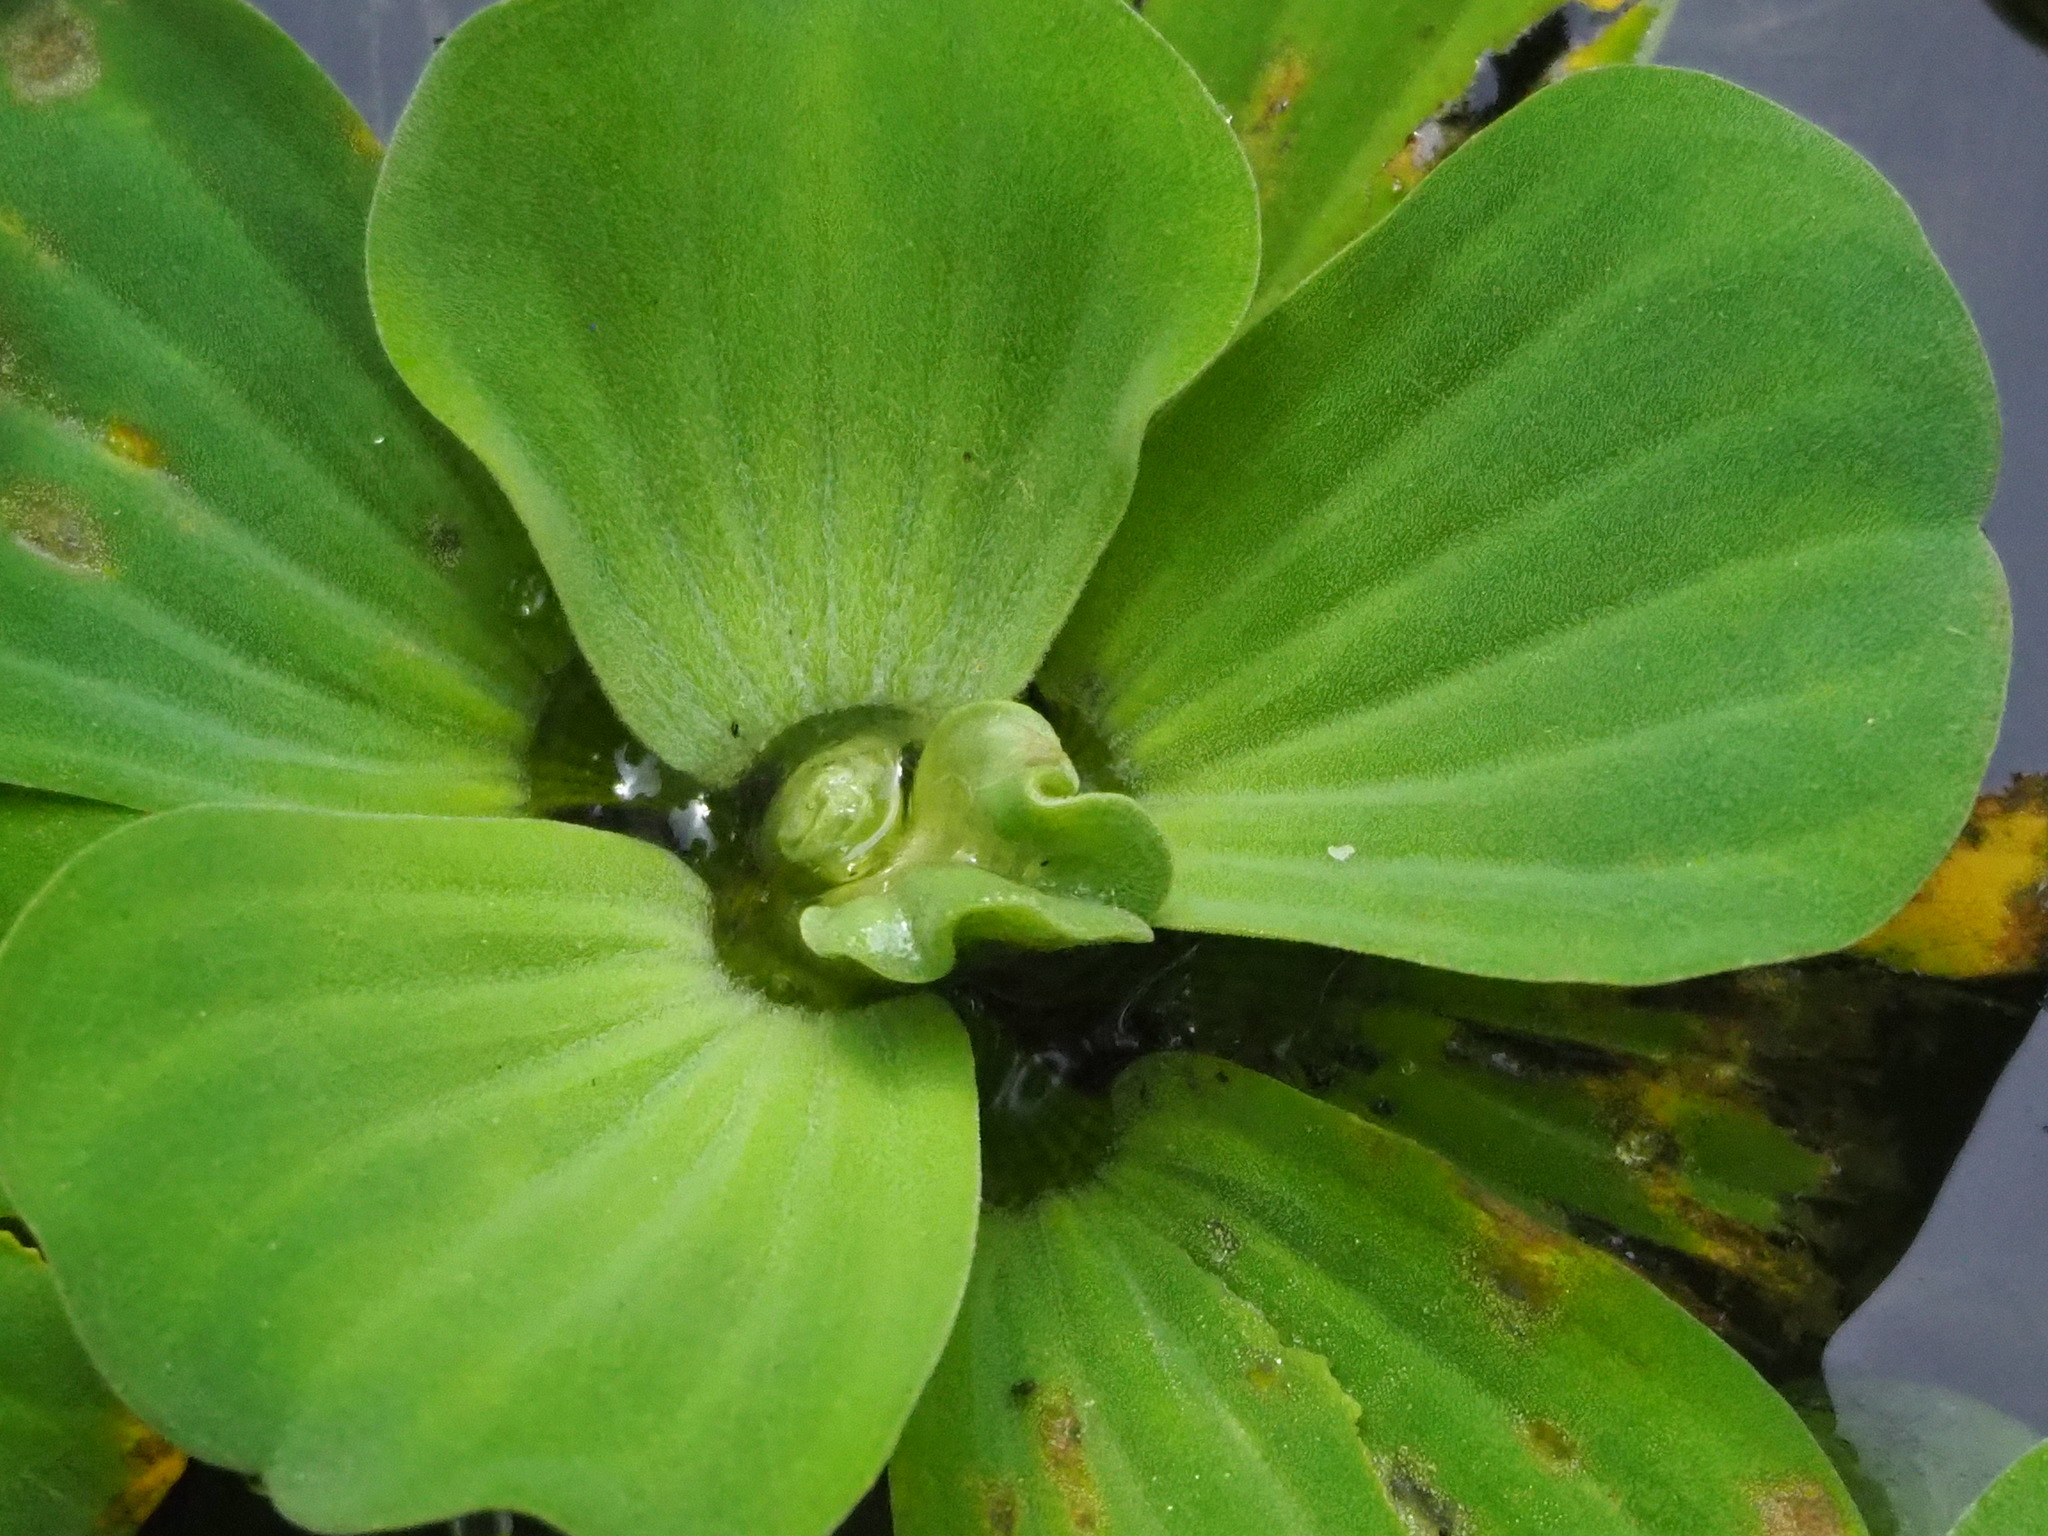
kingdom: Plantae
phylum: Tracheophyta
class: Liliopsida
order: Alismatales
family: Araceae
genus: Pistia
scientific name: Pistia stratiotes
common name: Water lettuce
